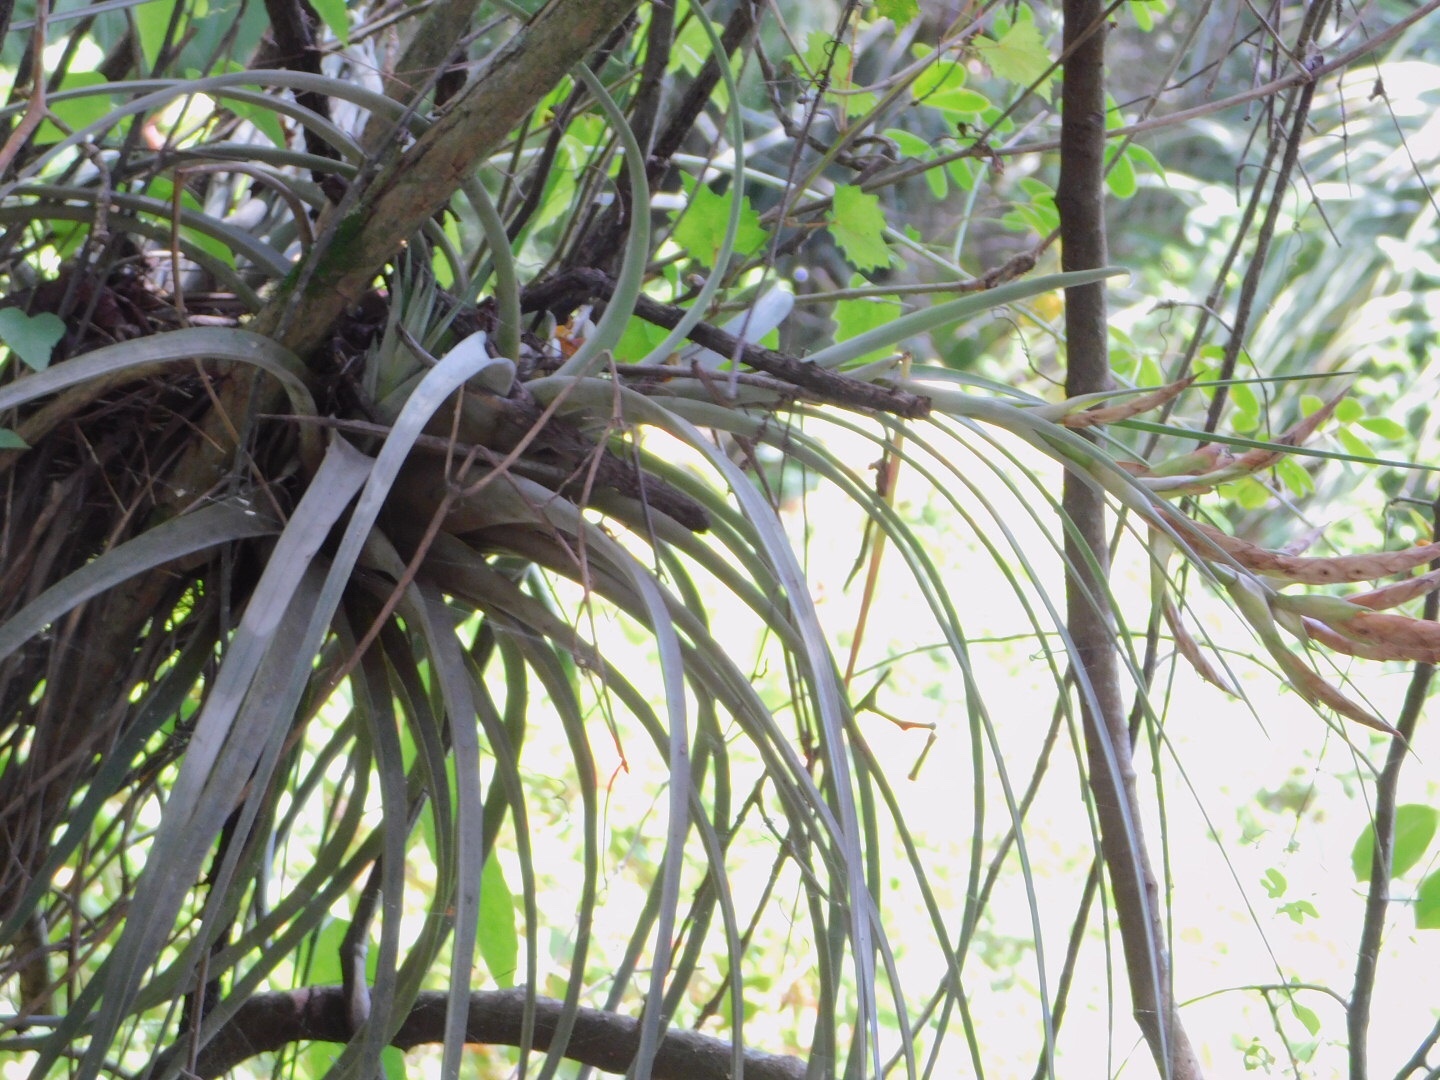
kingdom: Plantae
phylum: Tracheophyta
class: Liliopsida
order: Poales
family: Bromeliaceae
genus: Tillandsia
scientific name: Tillandsia fasciculata
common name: Giant airplant
